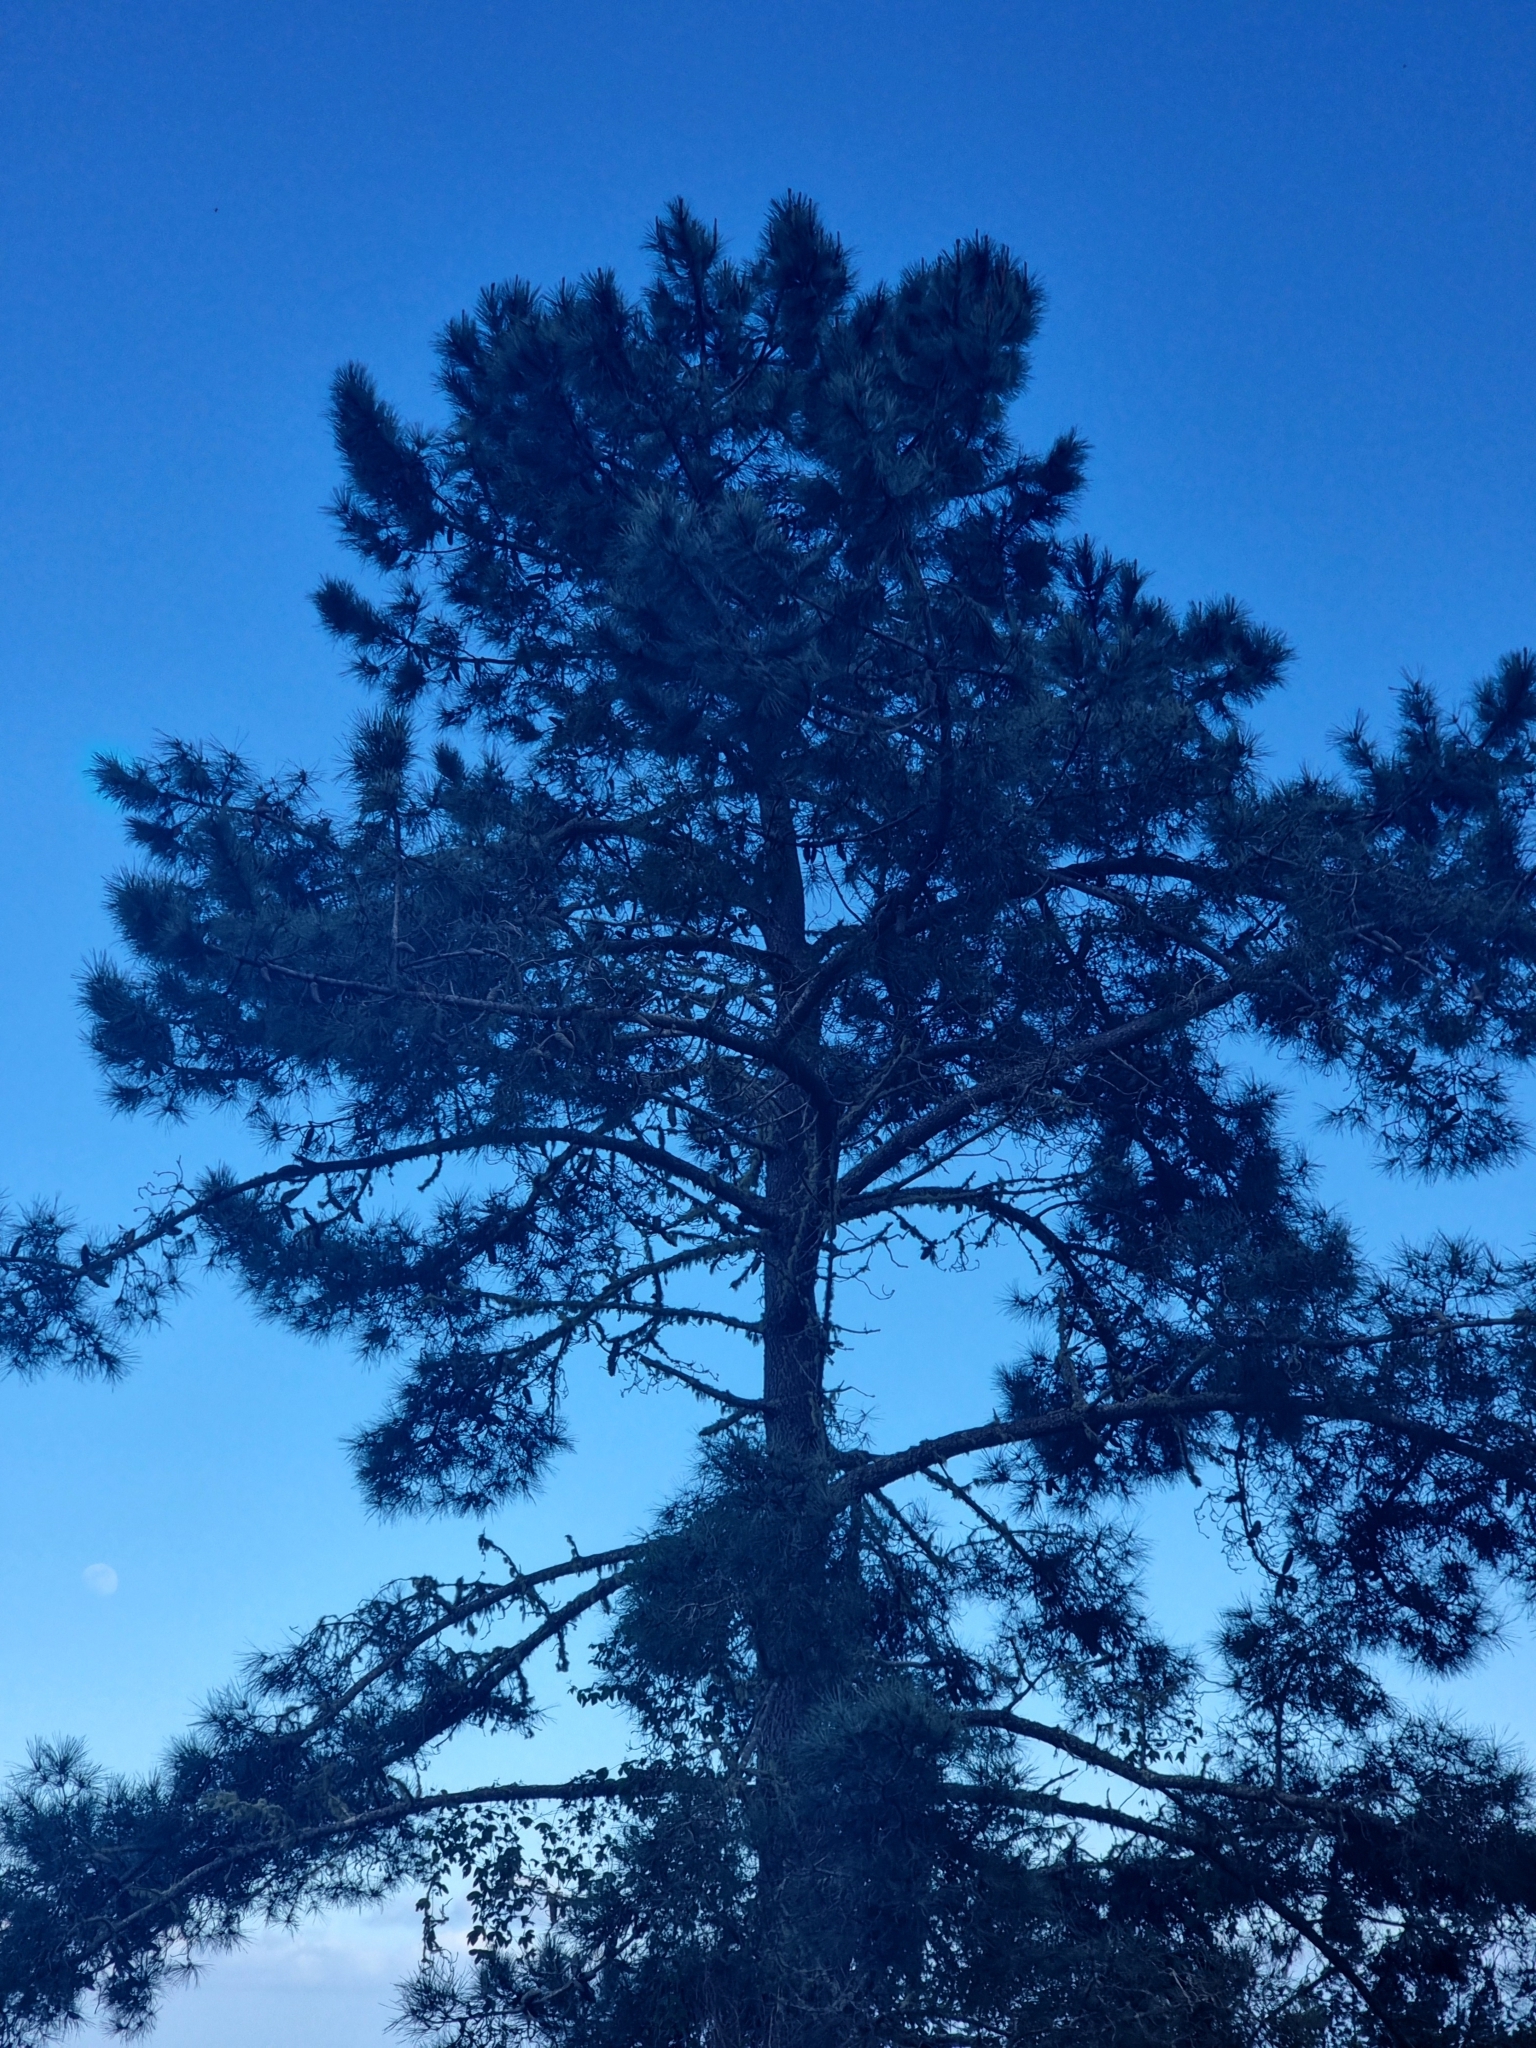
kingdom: Plantae
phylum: Tracheophyta
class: Pinopsida
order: Pinales
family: Pinaceae
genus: Pinus
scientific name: Pinus pinaster
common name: Maritime pine
